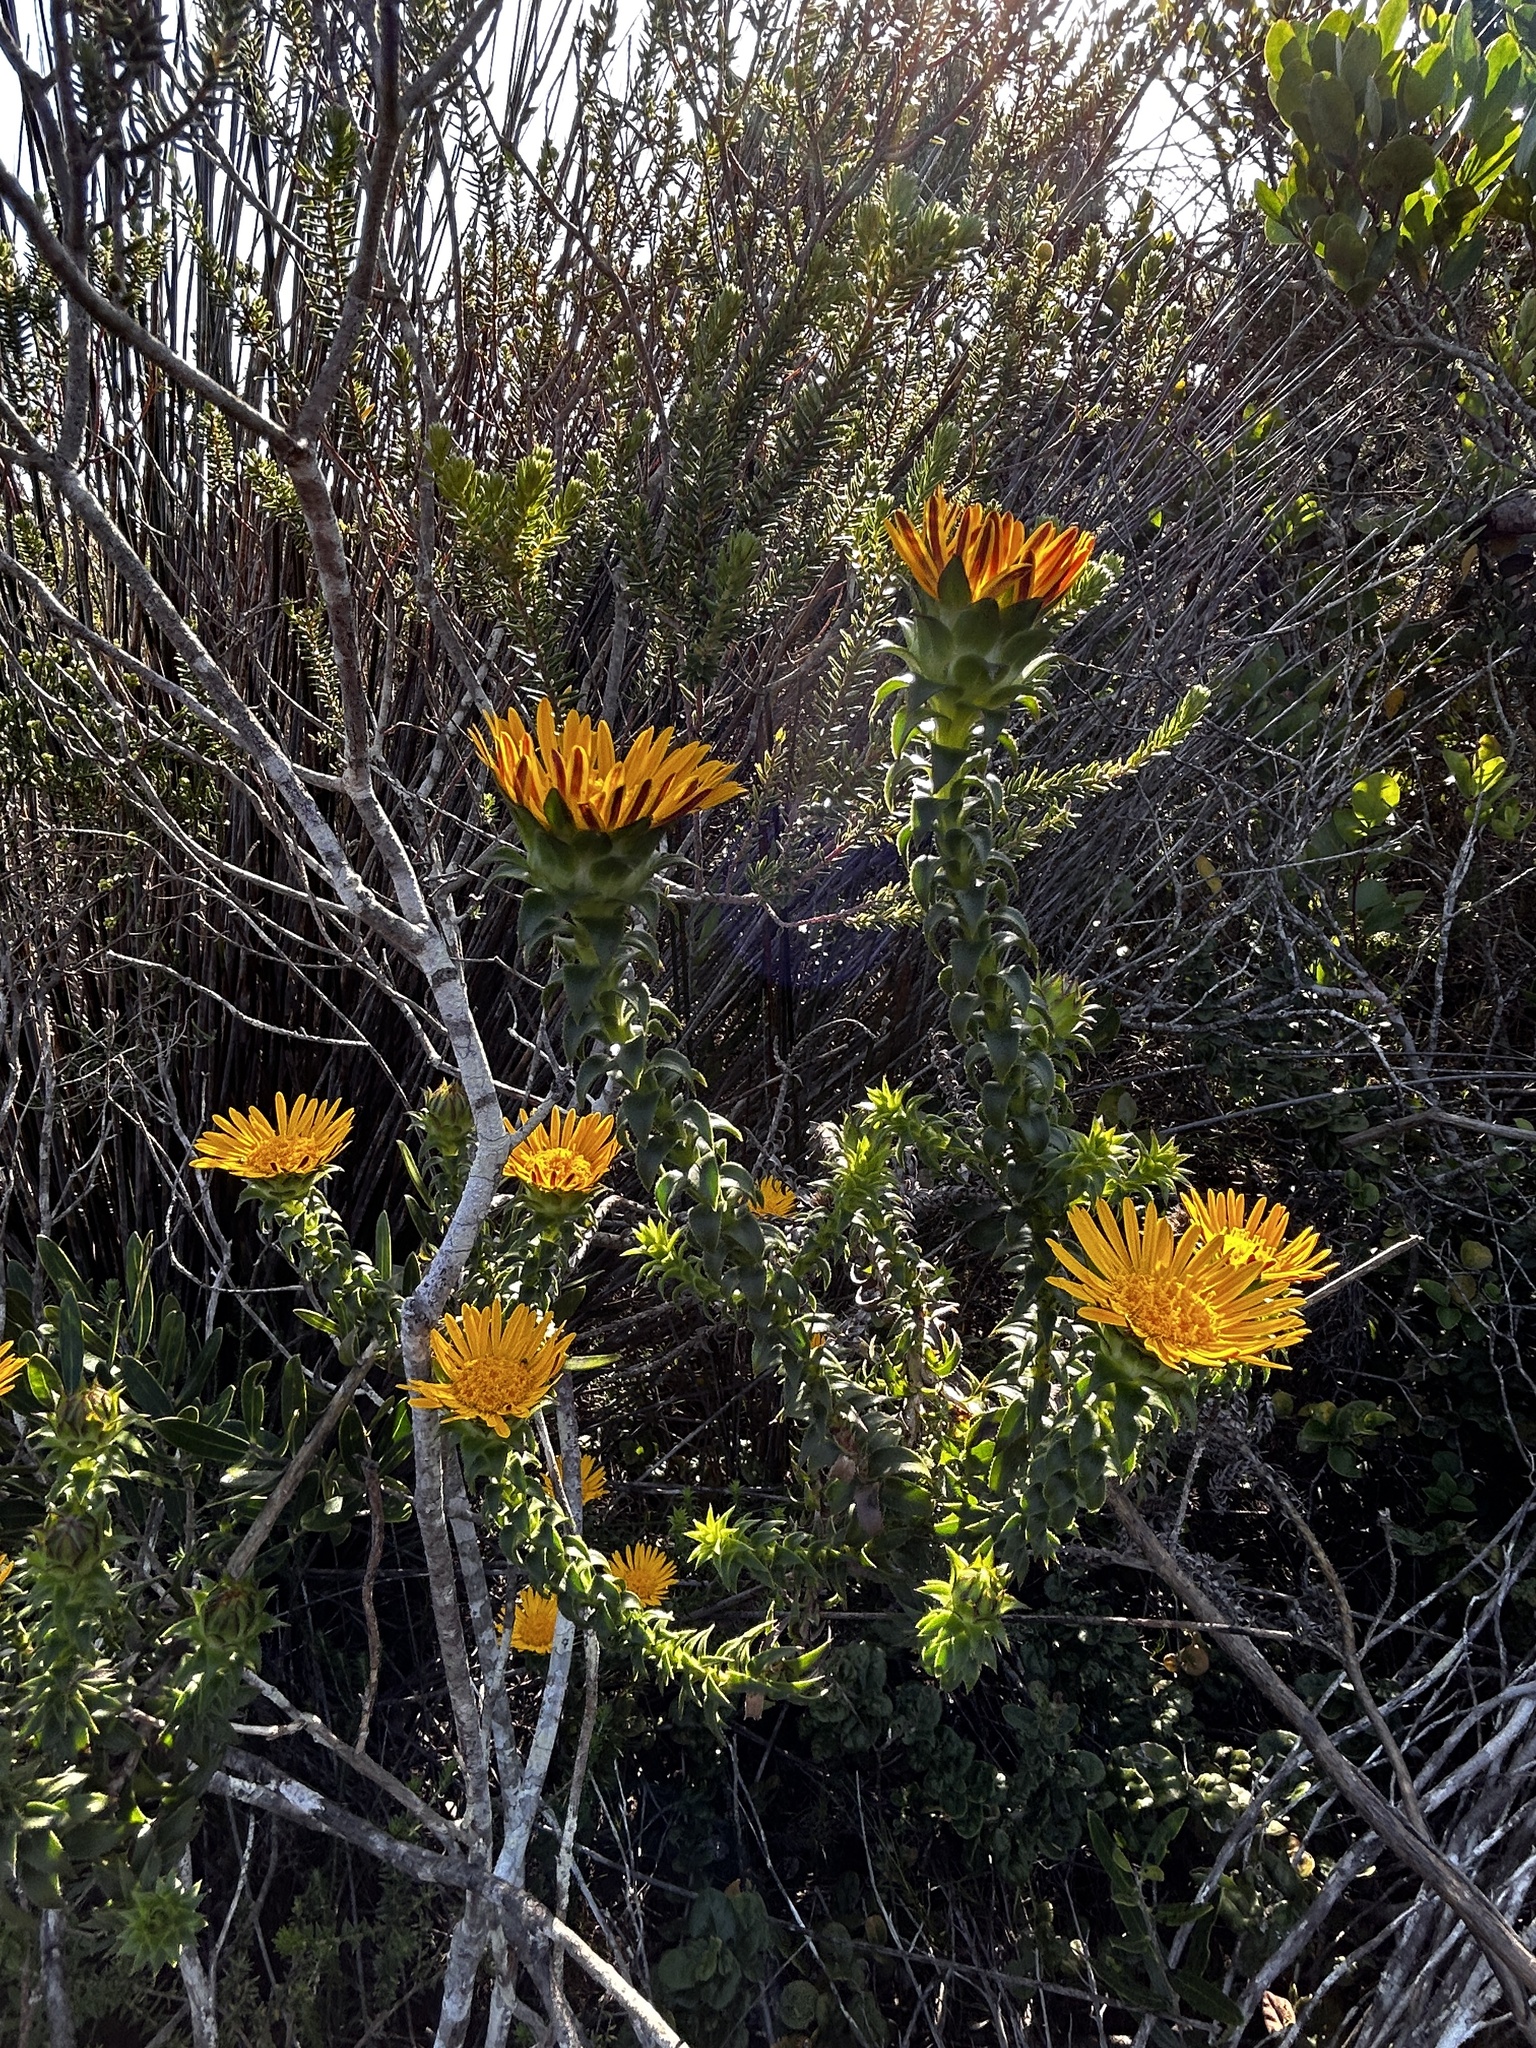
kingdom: Plantae
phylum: Tracheophyta
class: Magnoliopsida
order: Asterales
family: Asteraceae
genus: Oedera
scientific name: Oedera imbricata
